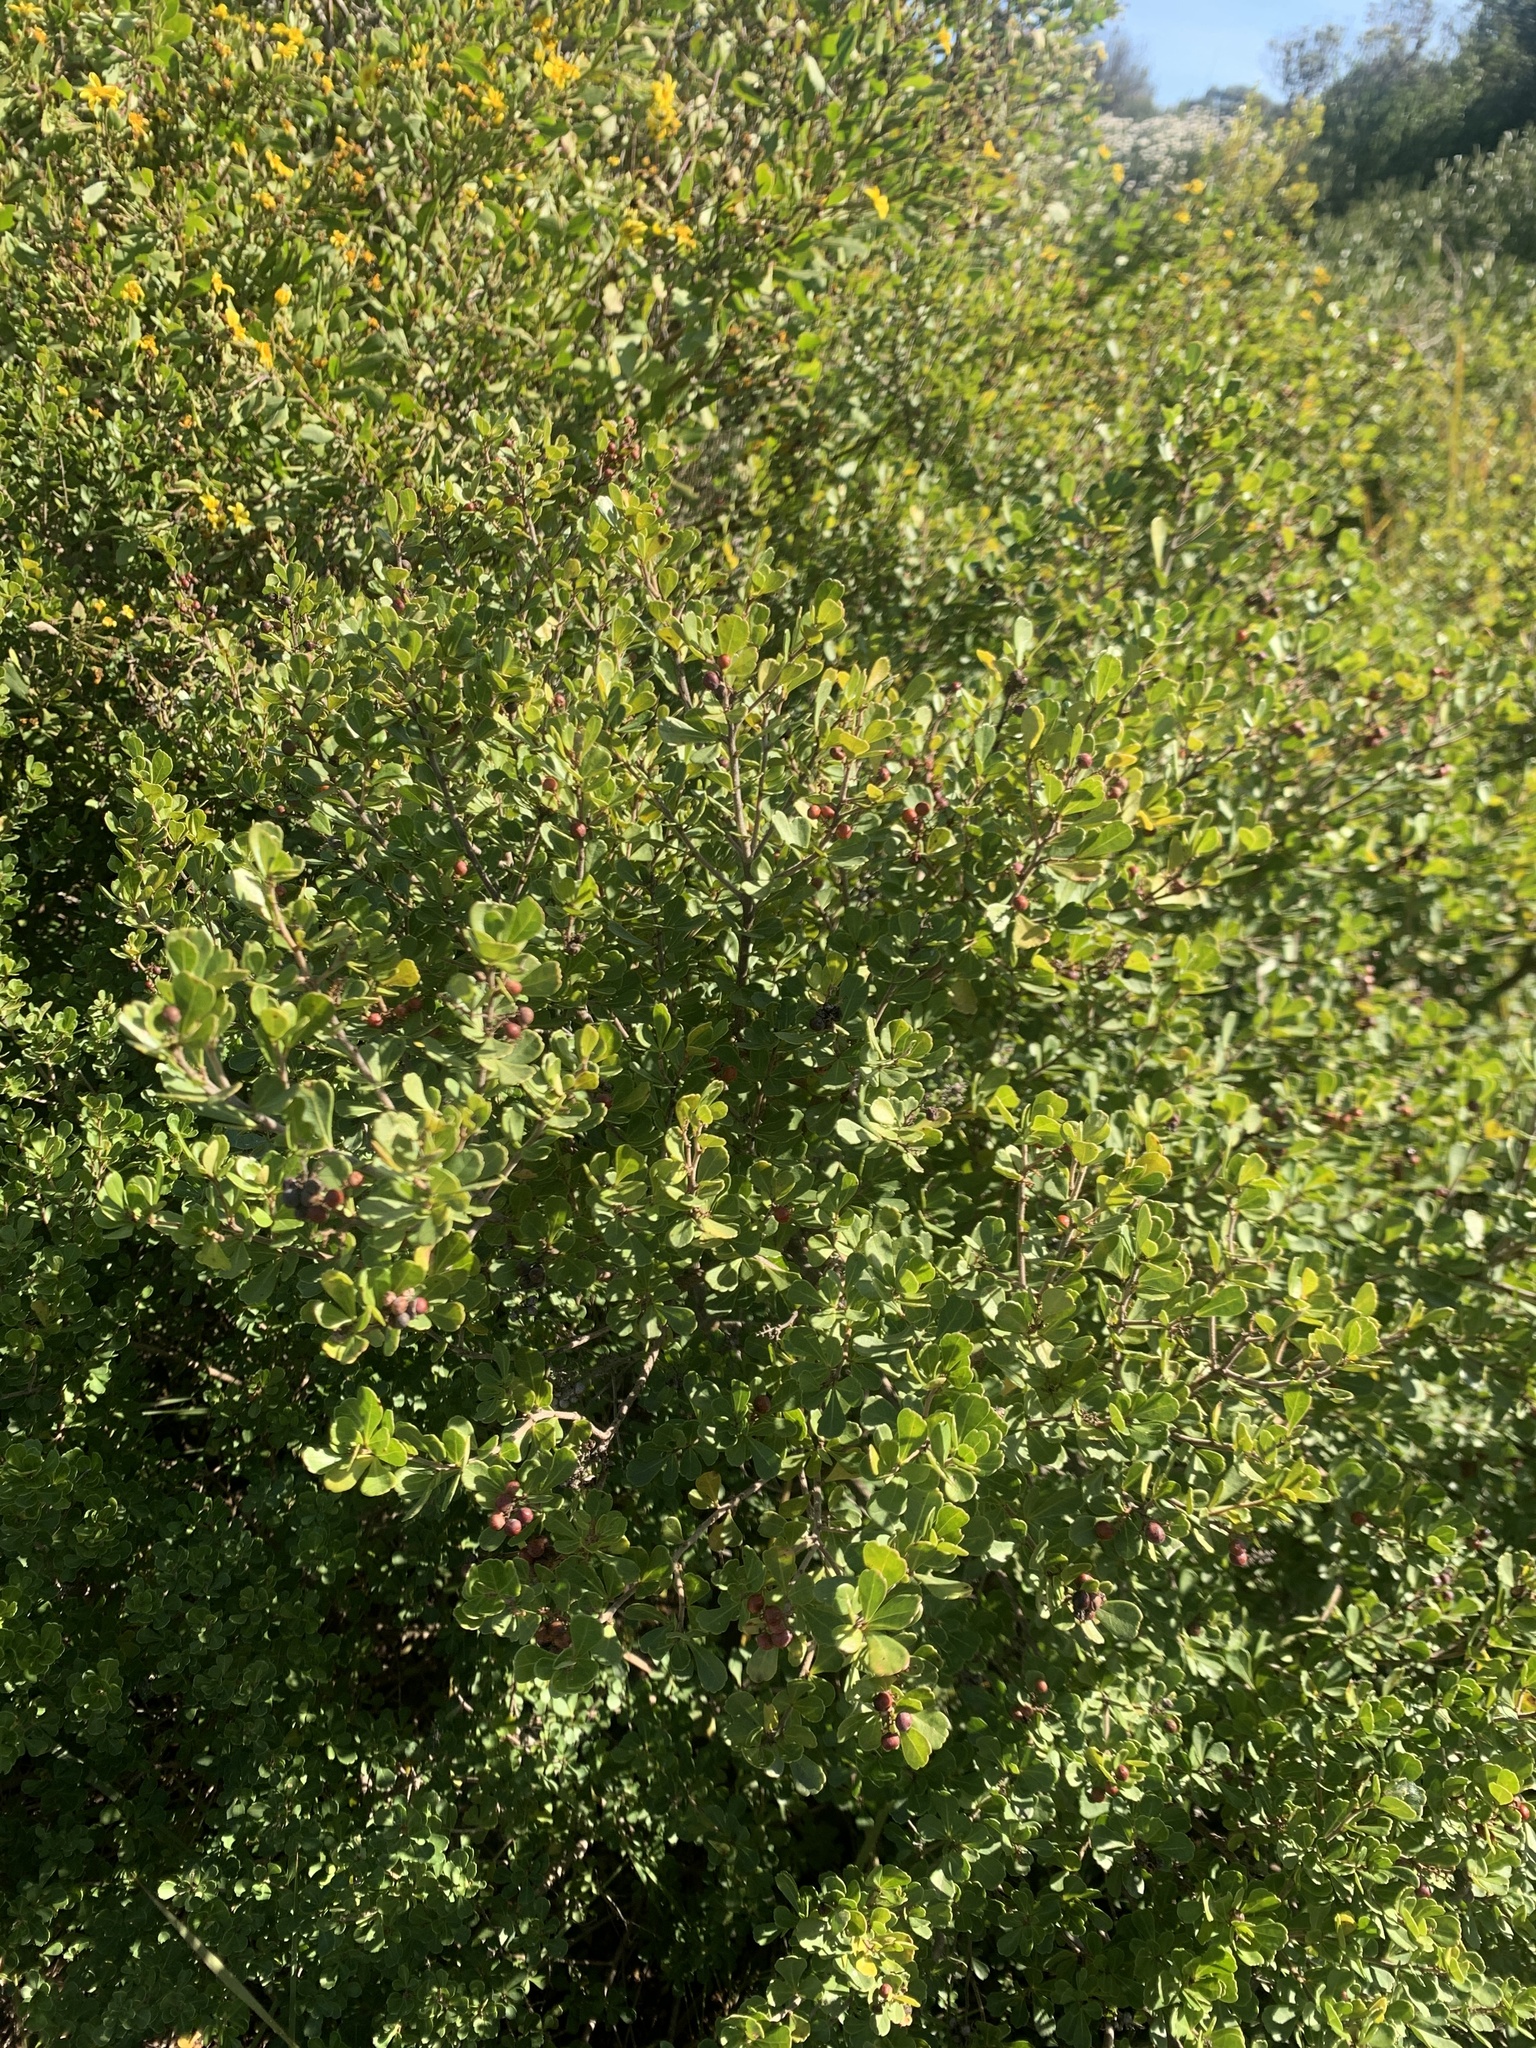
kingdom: Plantae
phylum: Tracheophyta
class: Magnoliopsida
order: Sapindales
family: Anacardiaceae
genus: Searsia
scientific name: Searsia crenata
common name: Crowberry
